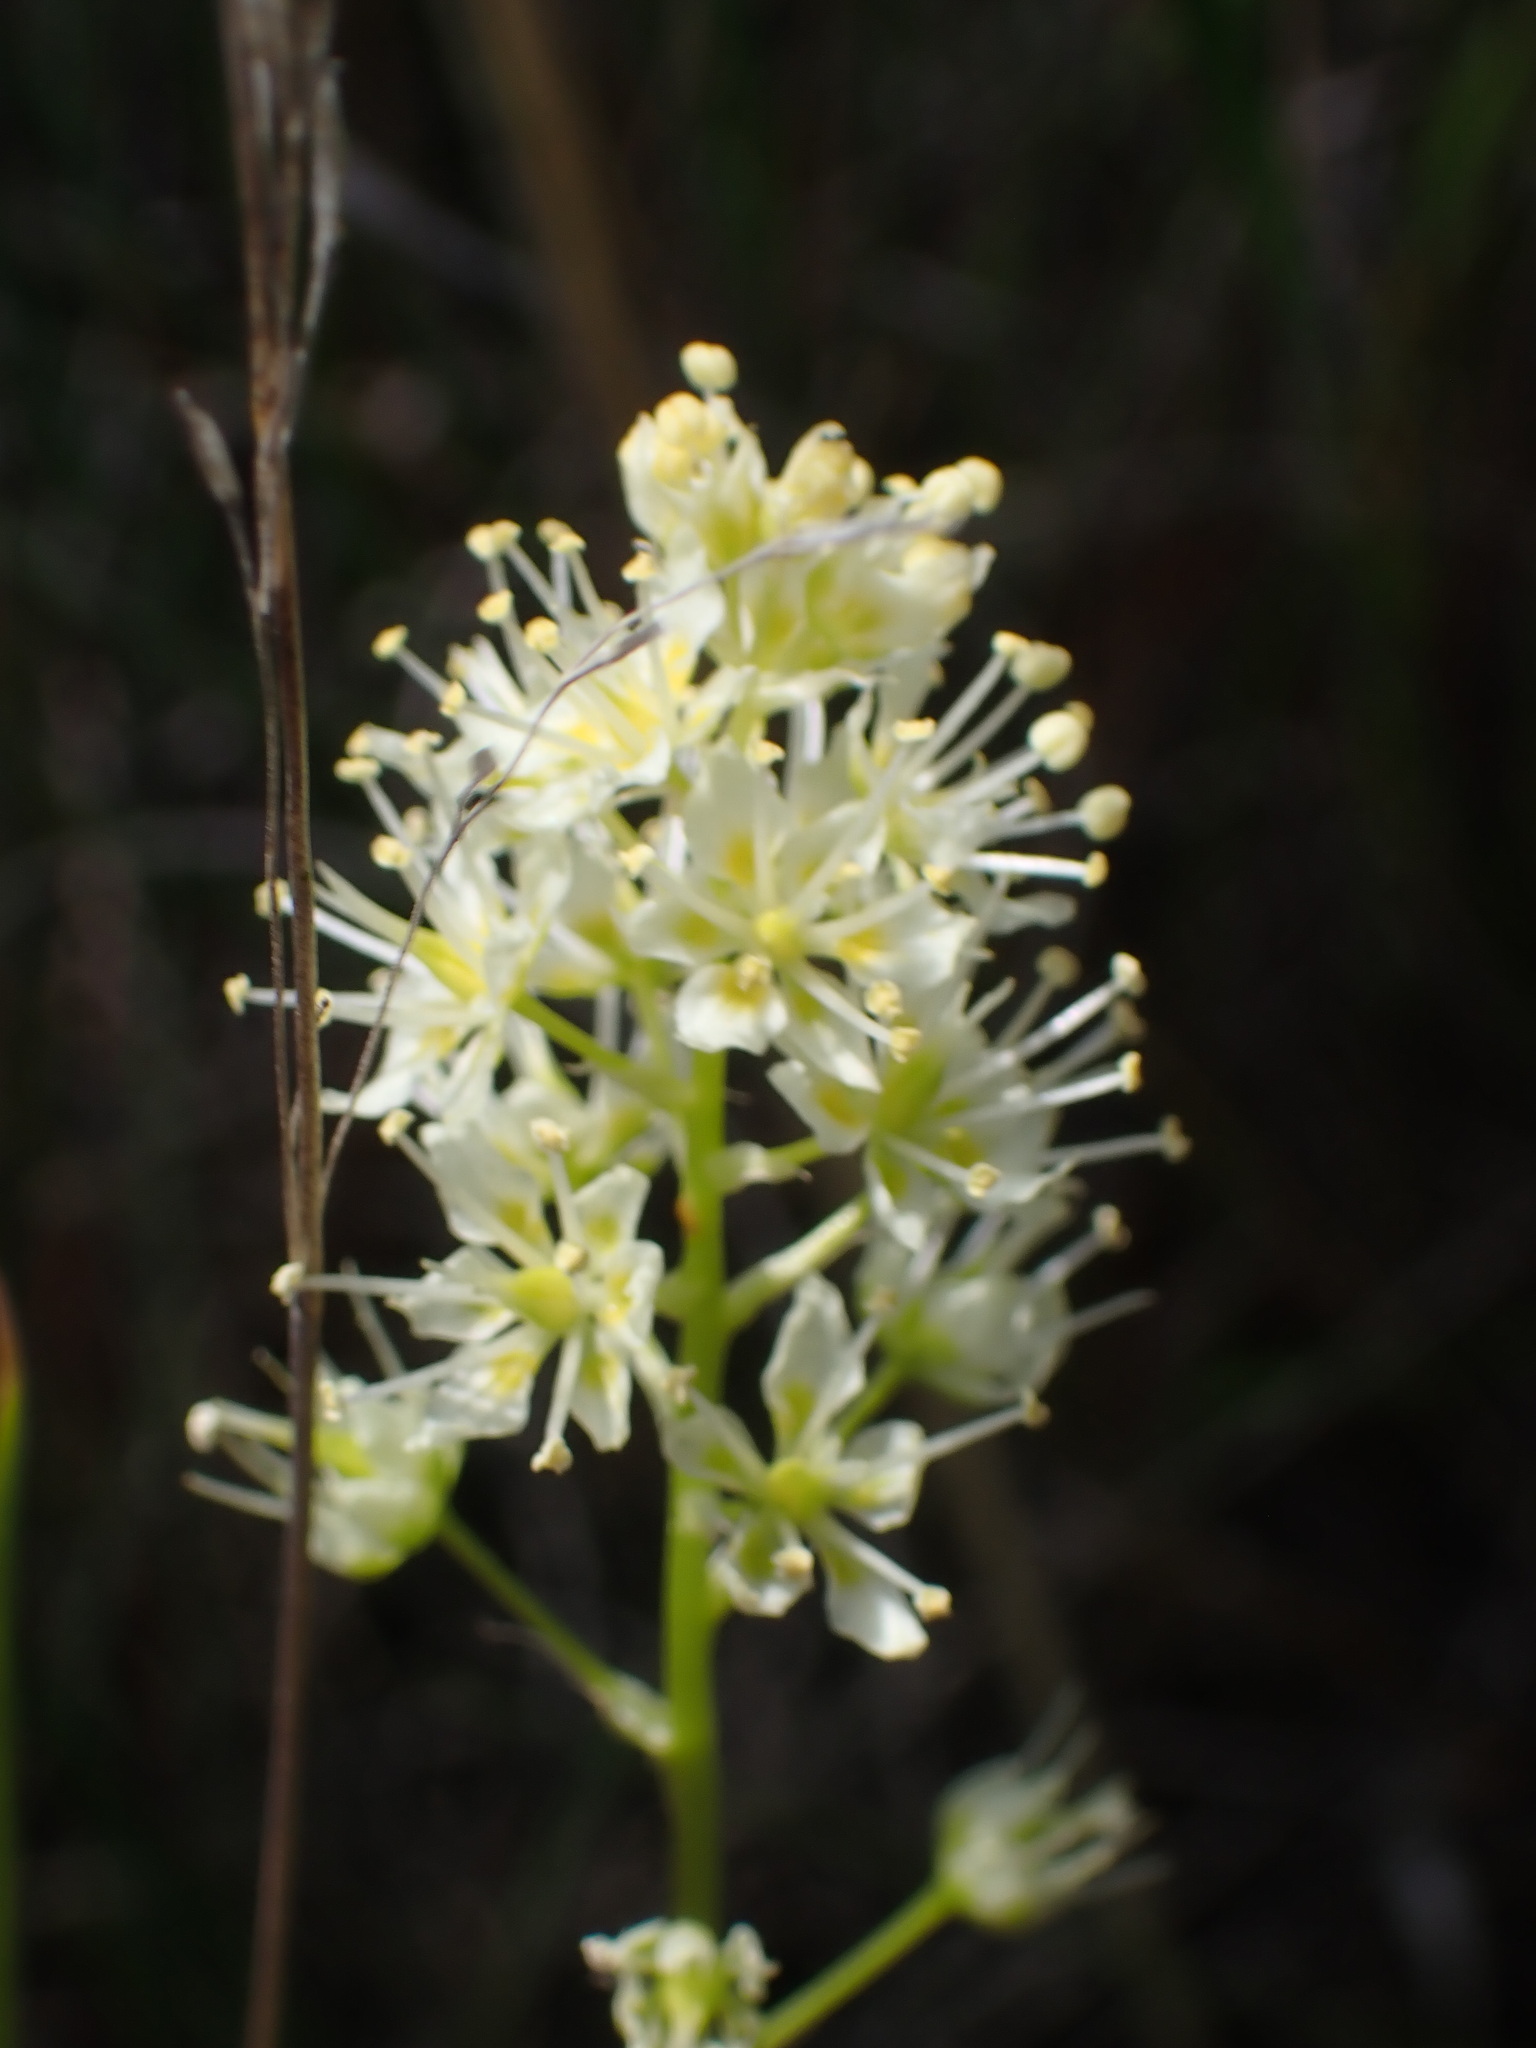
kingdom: Plantae
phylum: Tracheophyta
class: Liliopsida
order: Liliales
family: Melanthiaceae
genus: Toxicoscordion
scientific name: Toxicoscordion venenosum
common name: Meadow death camas
